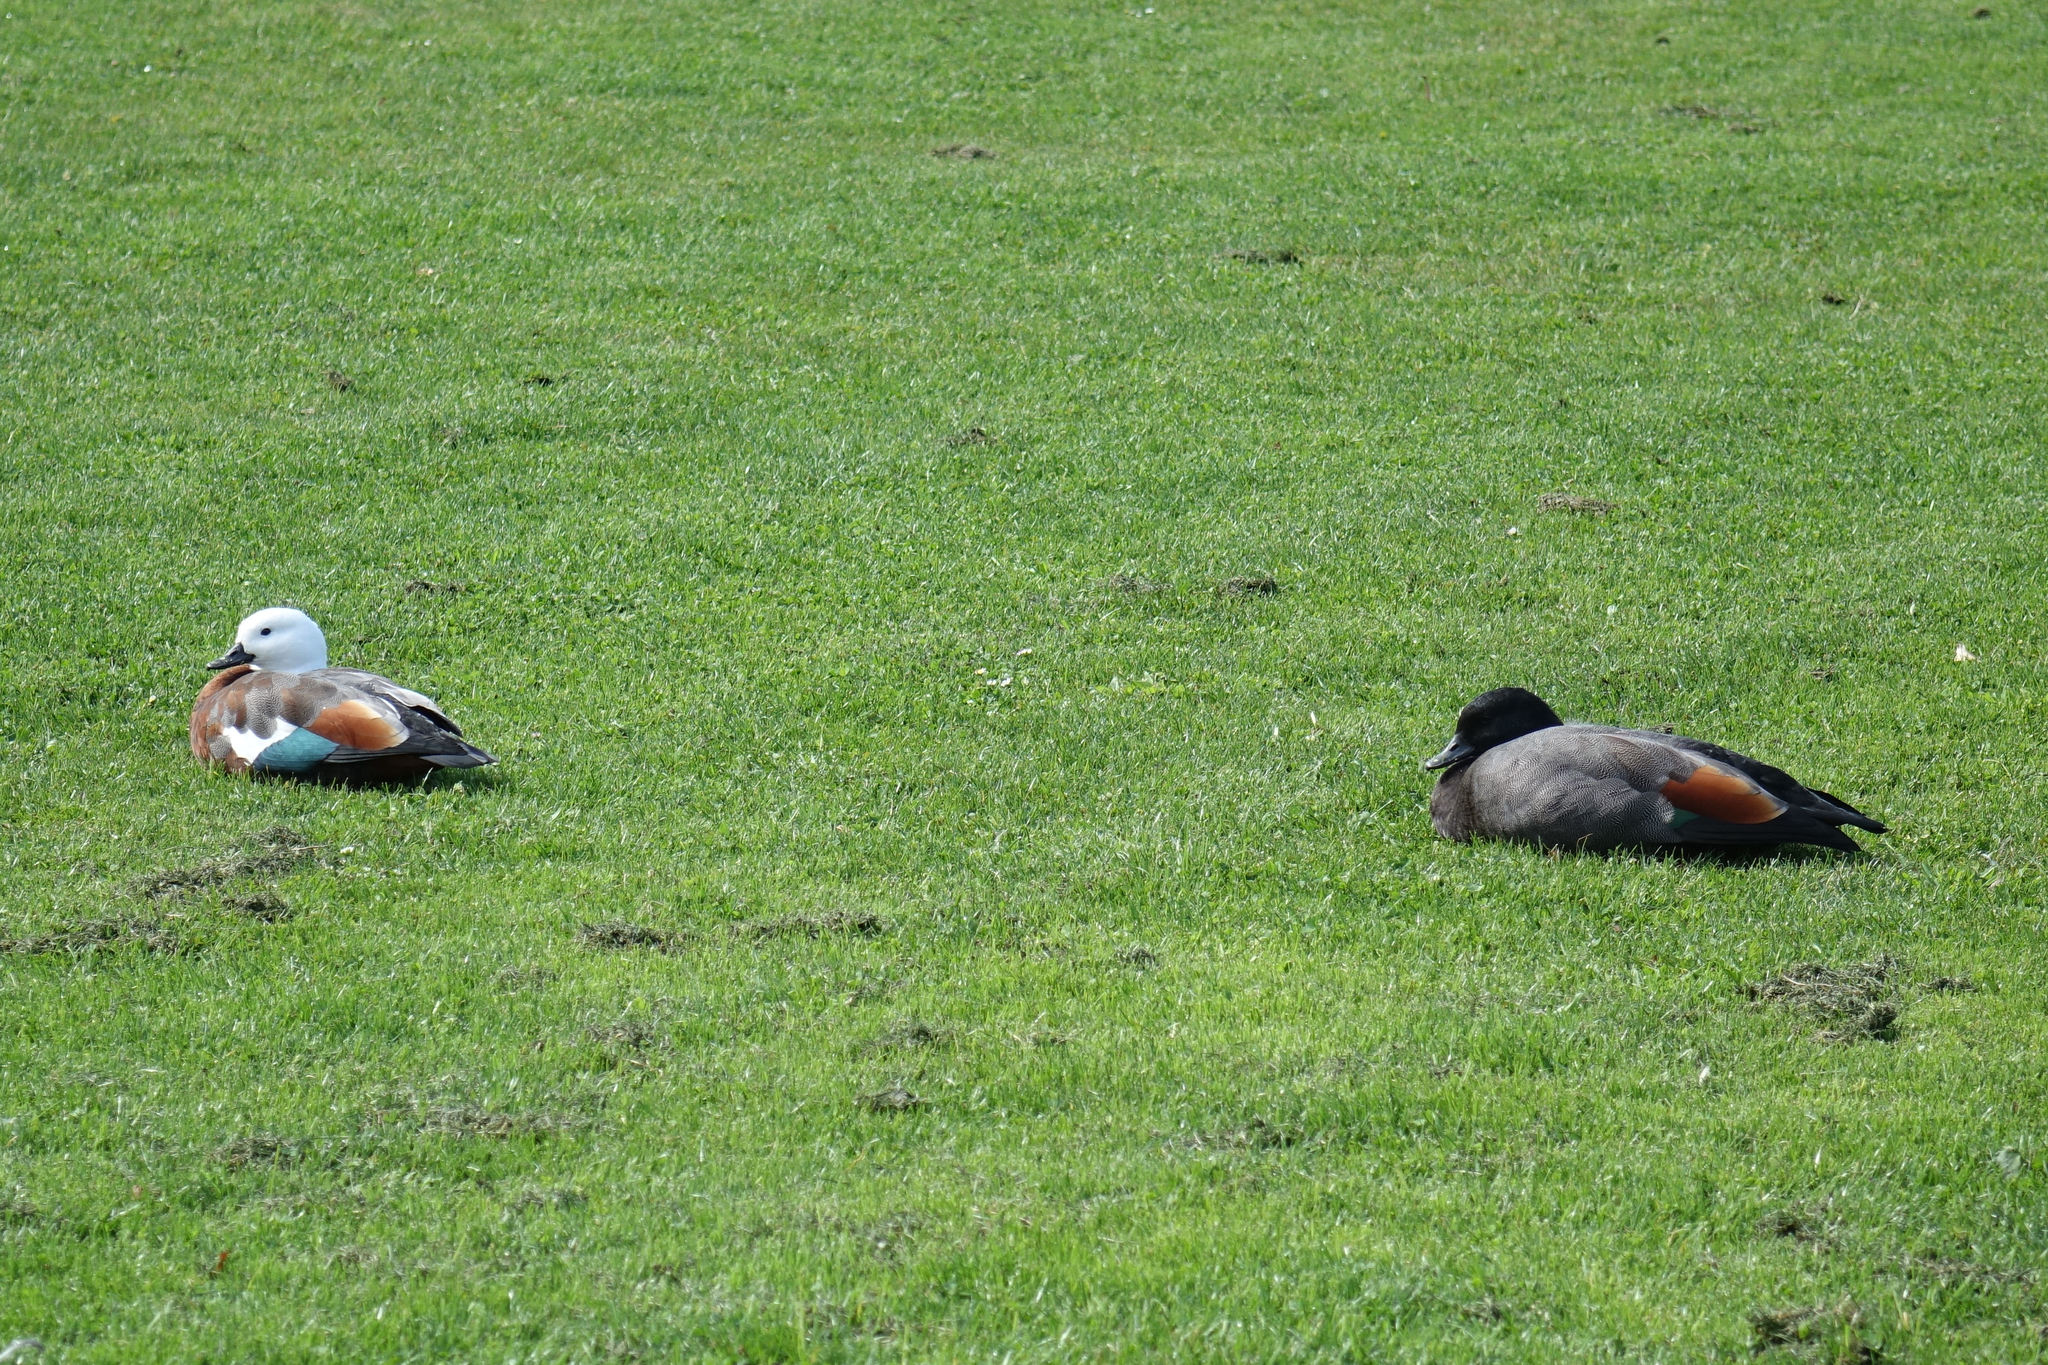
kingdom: Animalia
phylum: Chordata
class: Aves
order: Anseriformes
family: Anatidae
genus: Tadorna
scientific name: Tadorna variegata
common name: Paradise shelduck
